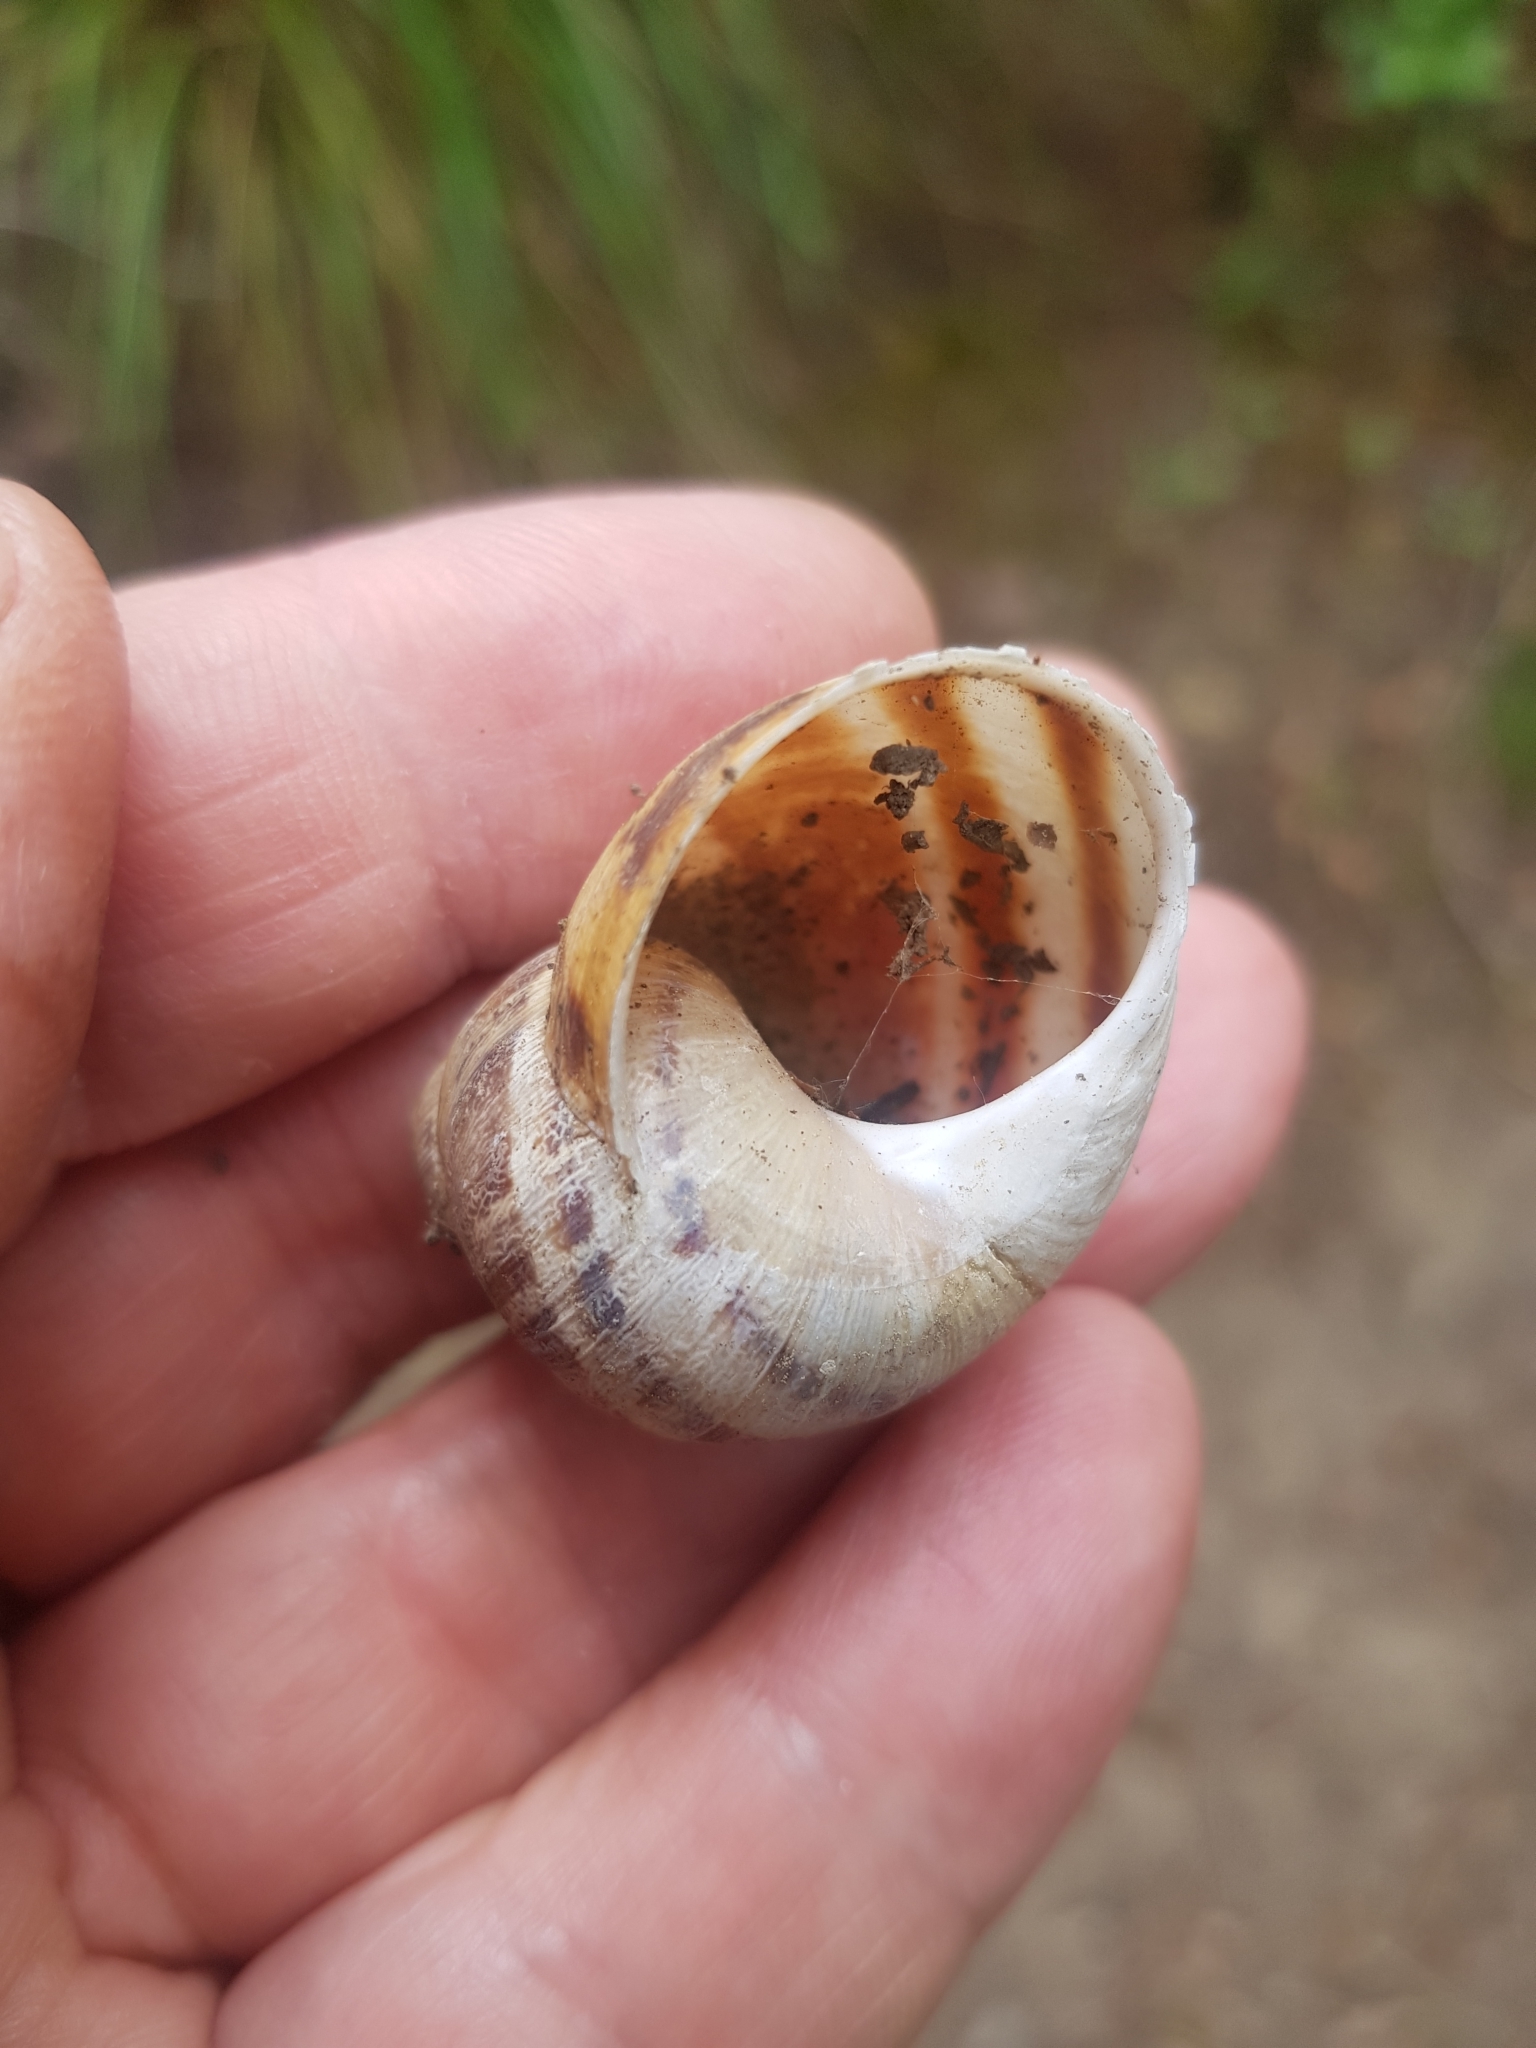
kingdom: Animalia
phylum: Mollusca
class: Gastropoda
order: Stylommatophora
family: Helicidae
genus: Cornu
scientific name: Cornu aspersum
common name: Brown garden snail
